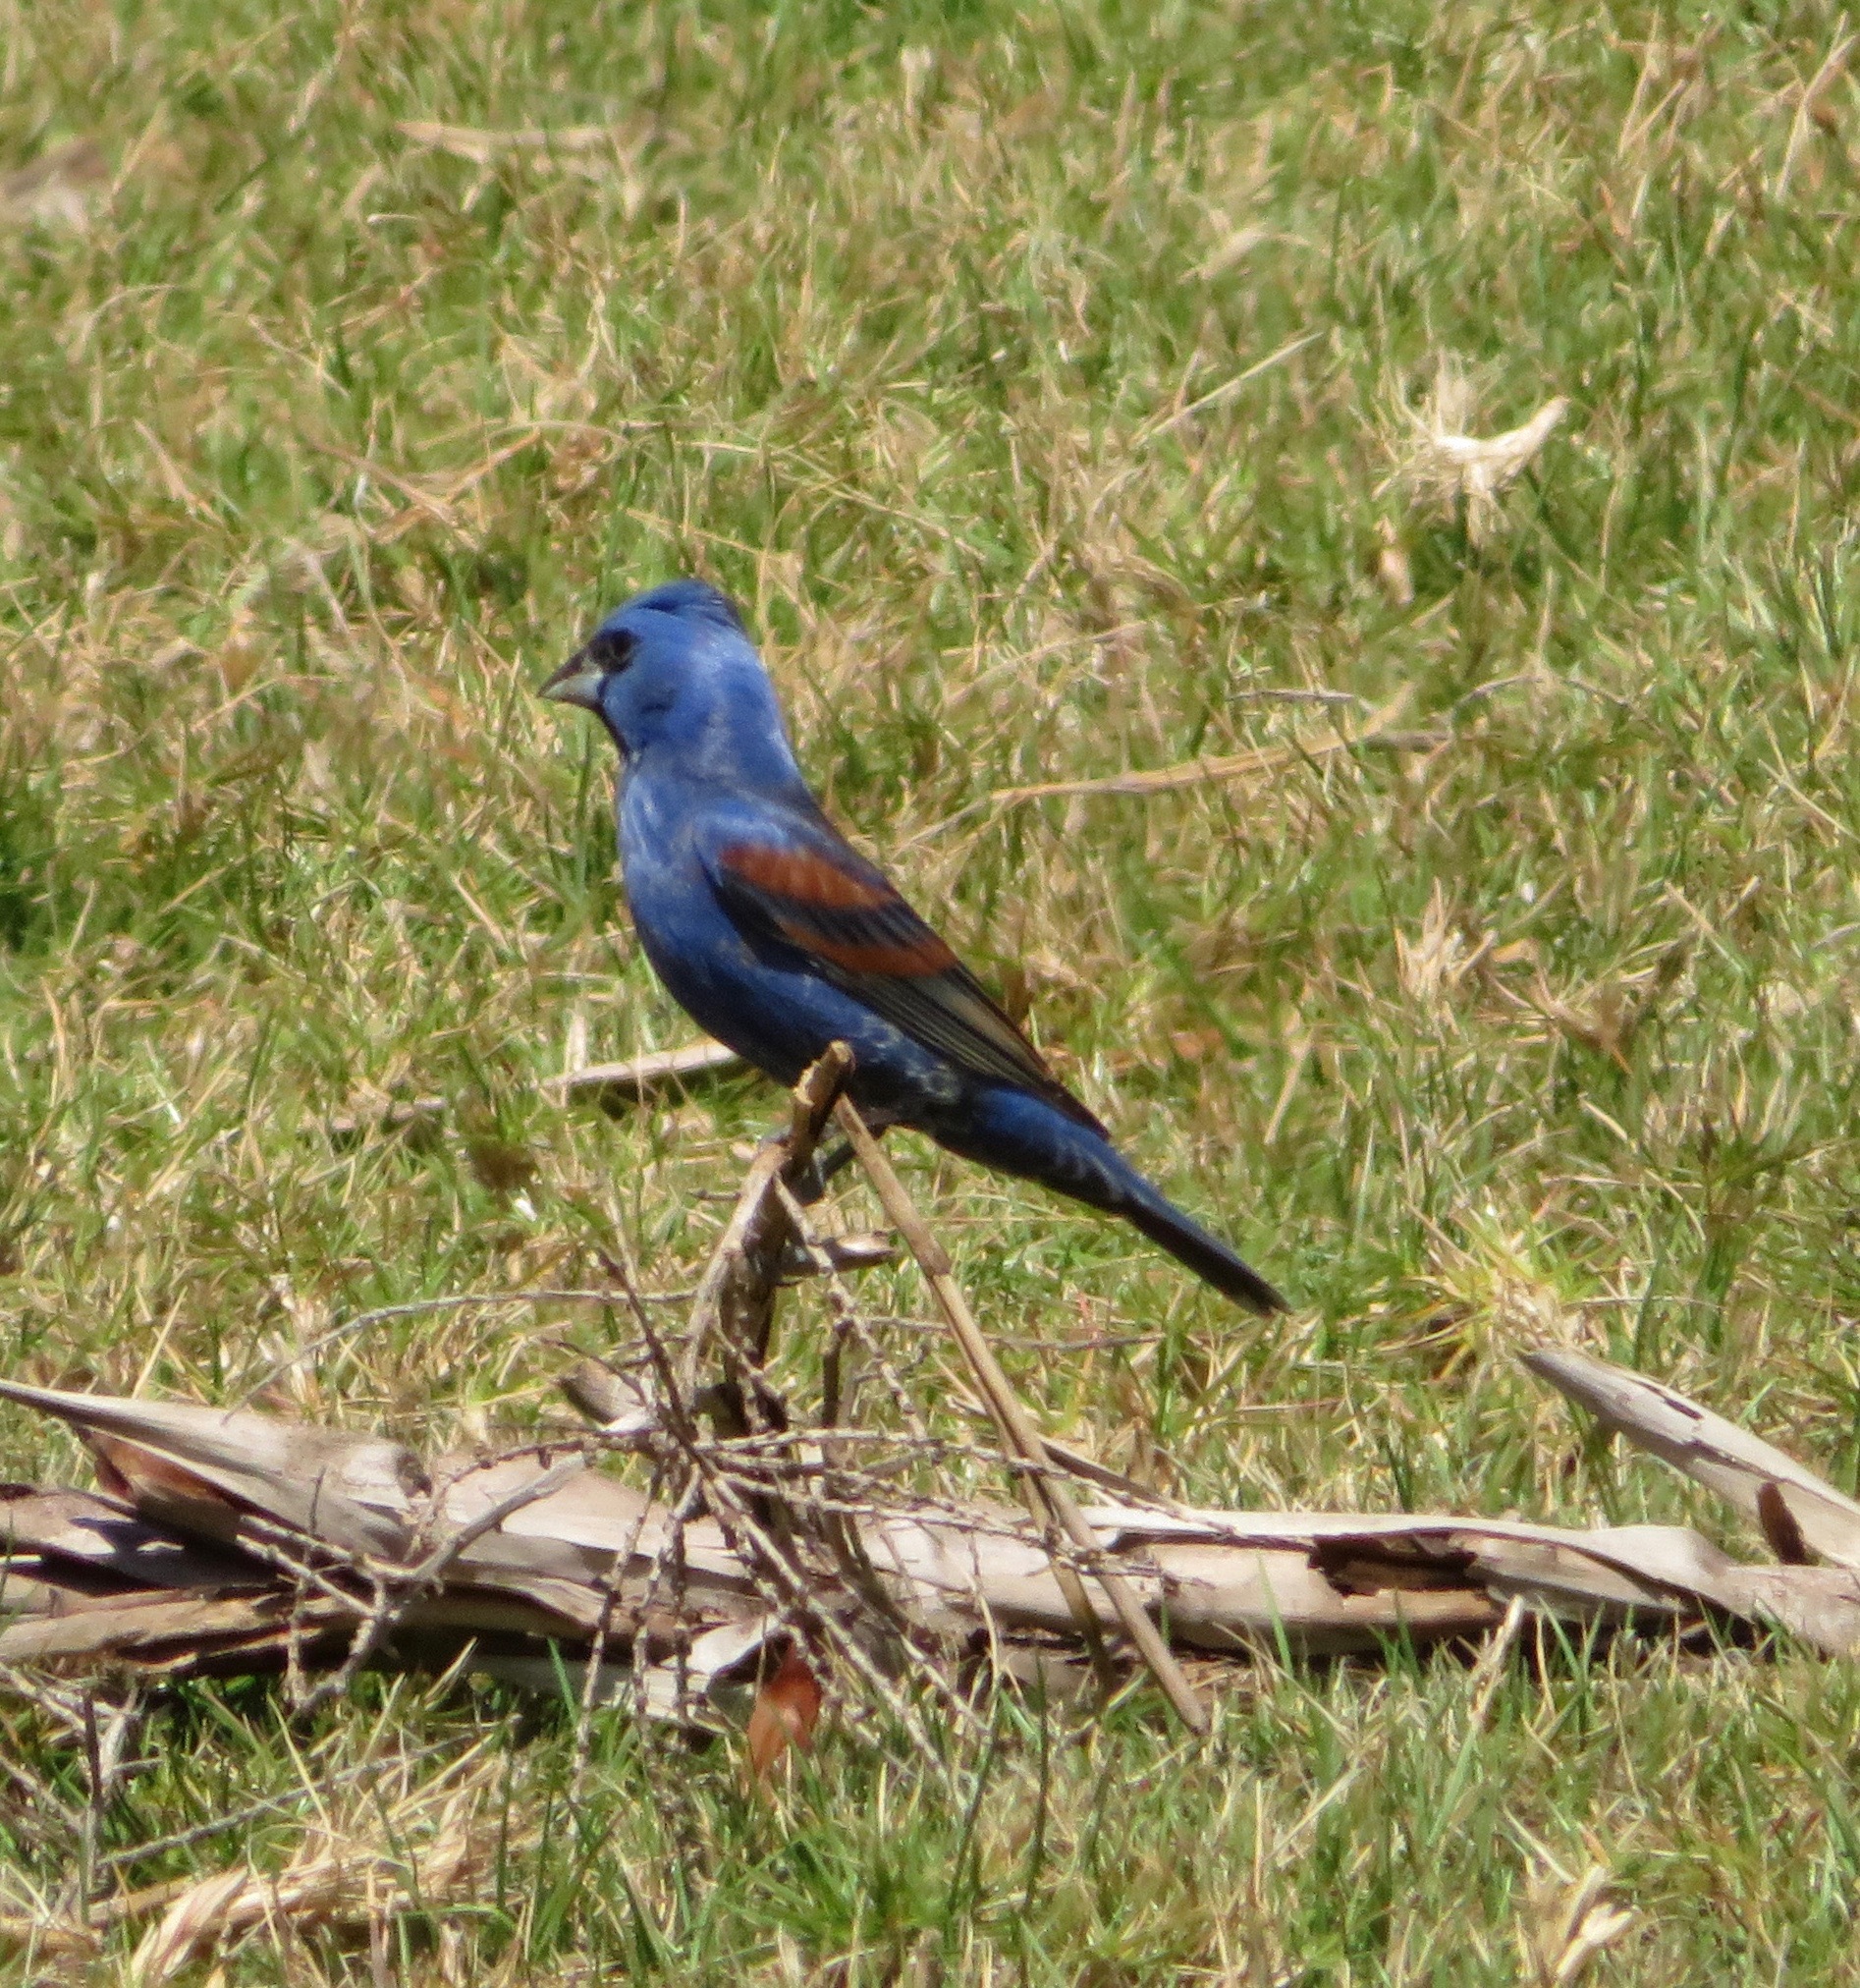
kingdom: Animalia
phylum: Chordata
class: Aves
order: Passeriformes
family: Cardinalidae
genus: Passerina
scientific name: Passerina caerulea
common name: Blue grosbeak
